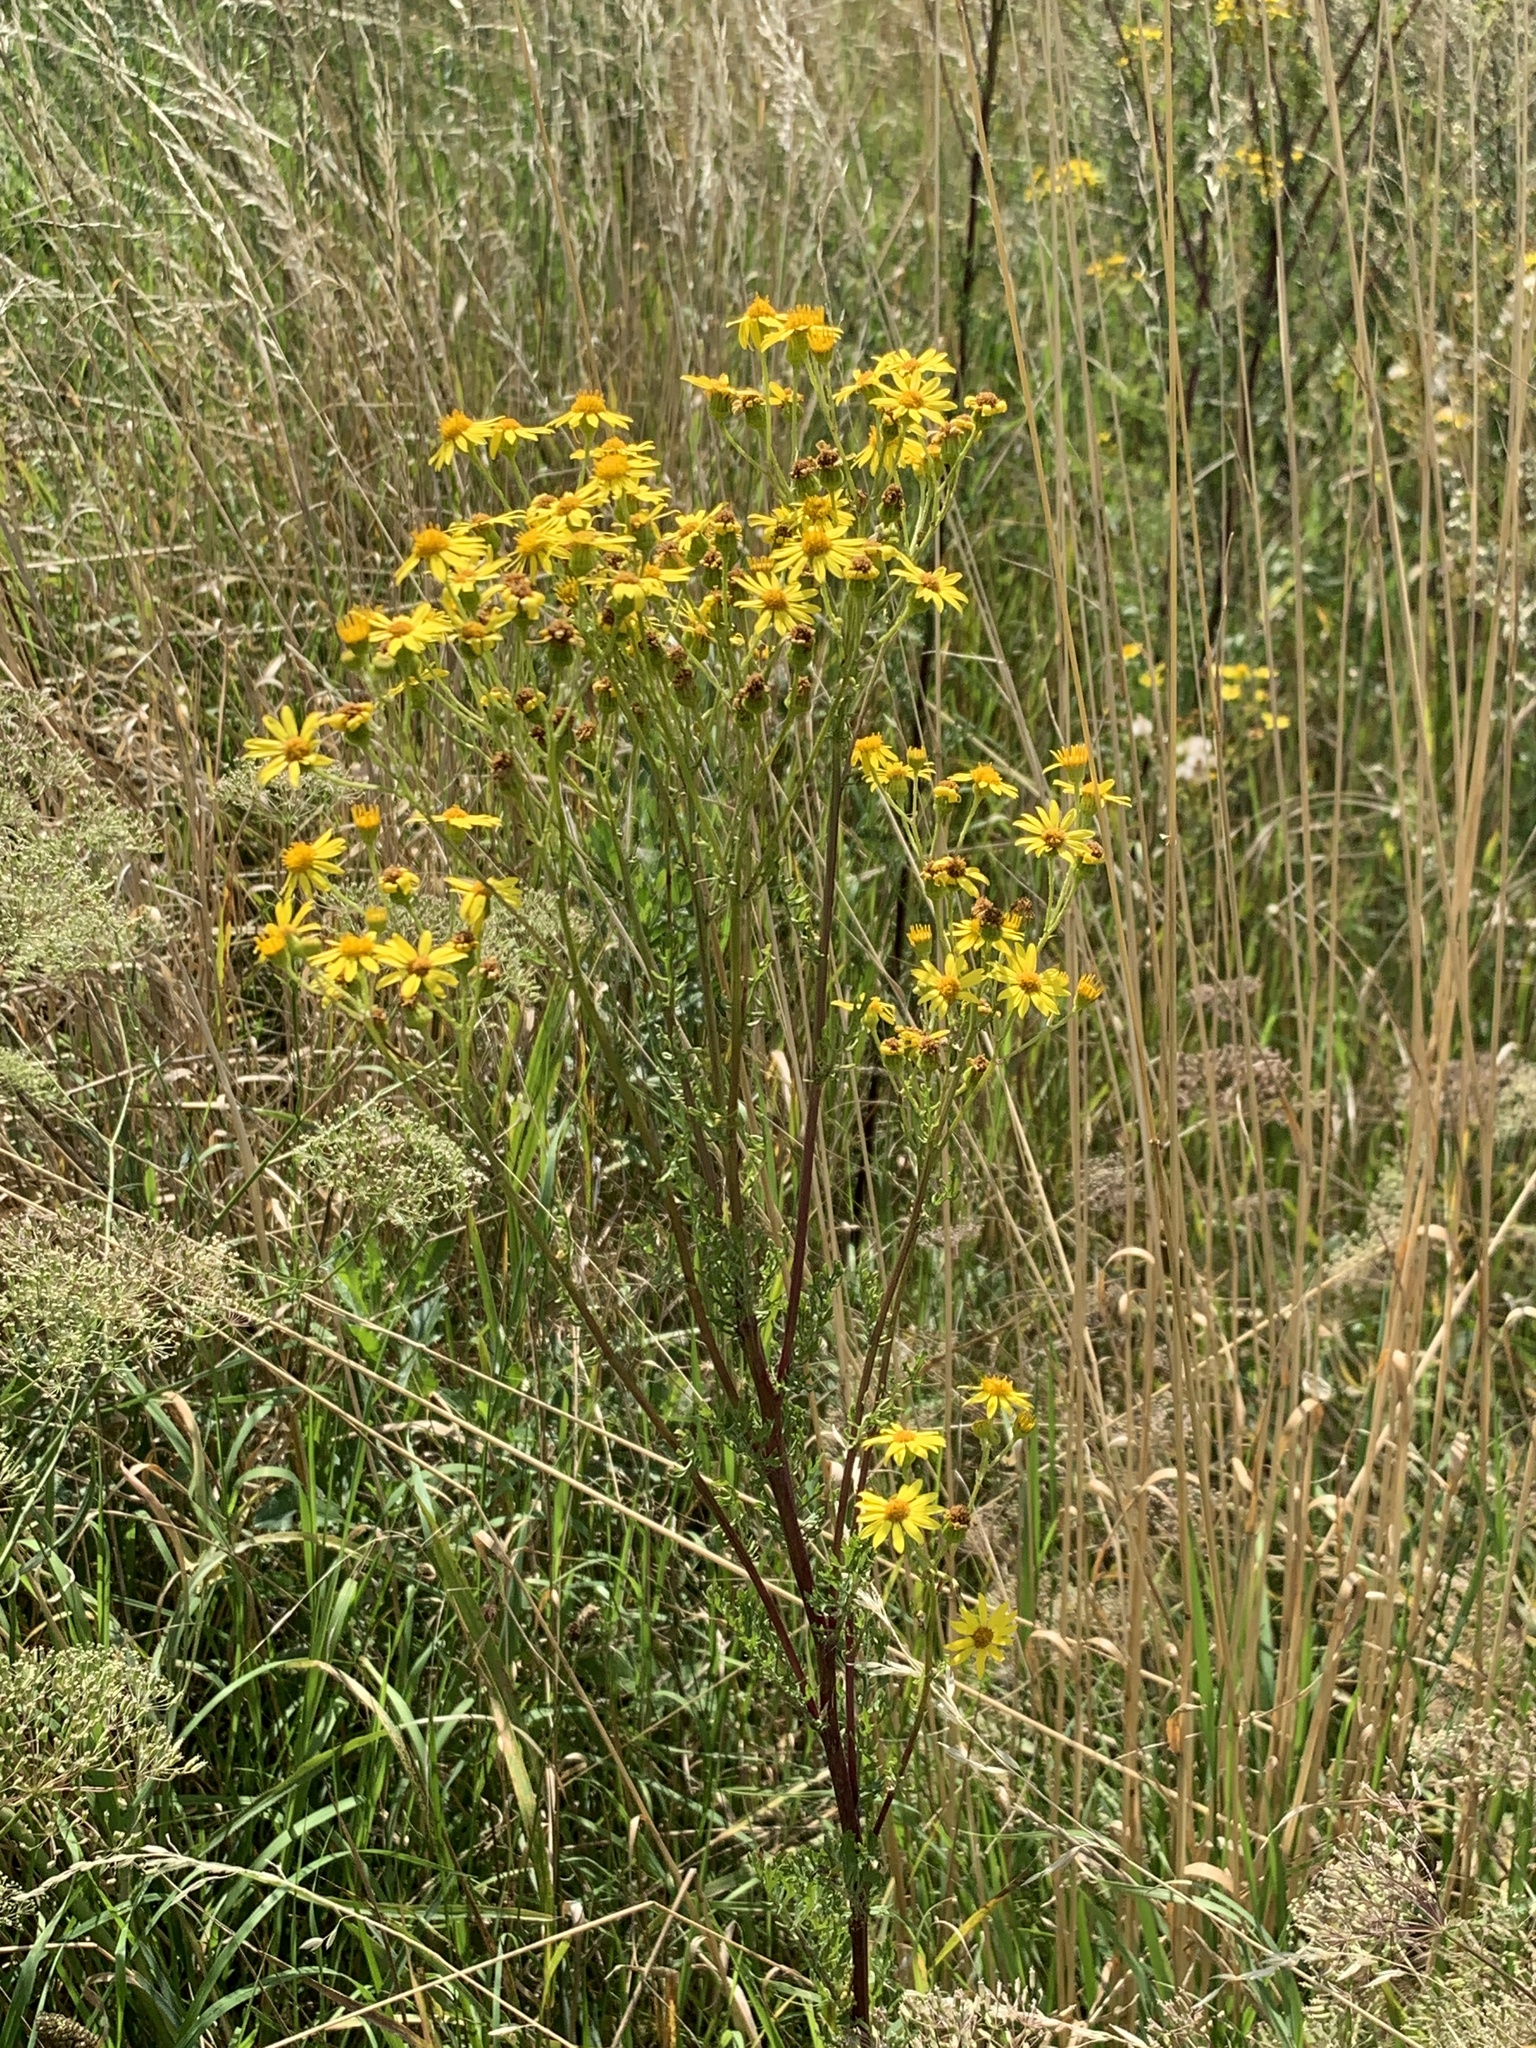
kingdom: Plantae
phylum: Tracheophyta
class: Magnoliopsida
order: Asterales
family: Asteraceae
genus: Jacobaea
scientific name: Jacobaea vulgaris
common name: Stinking willie
